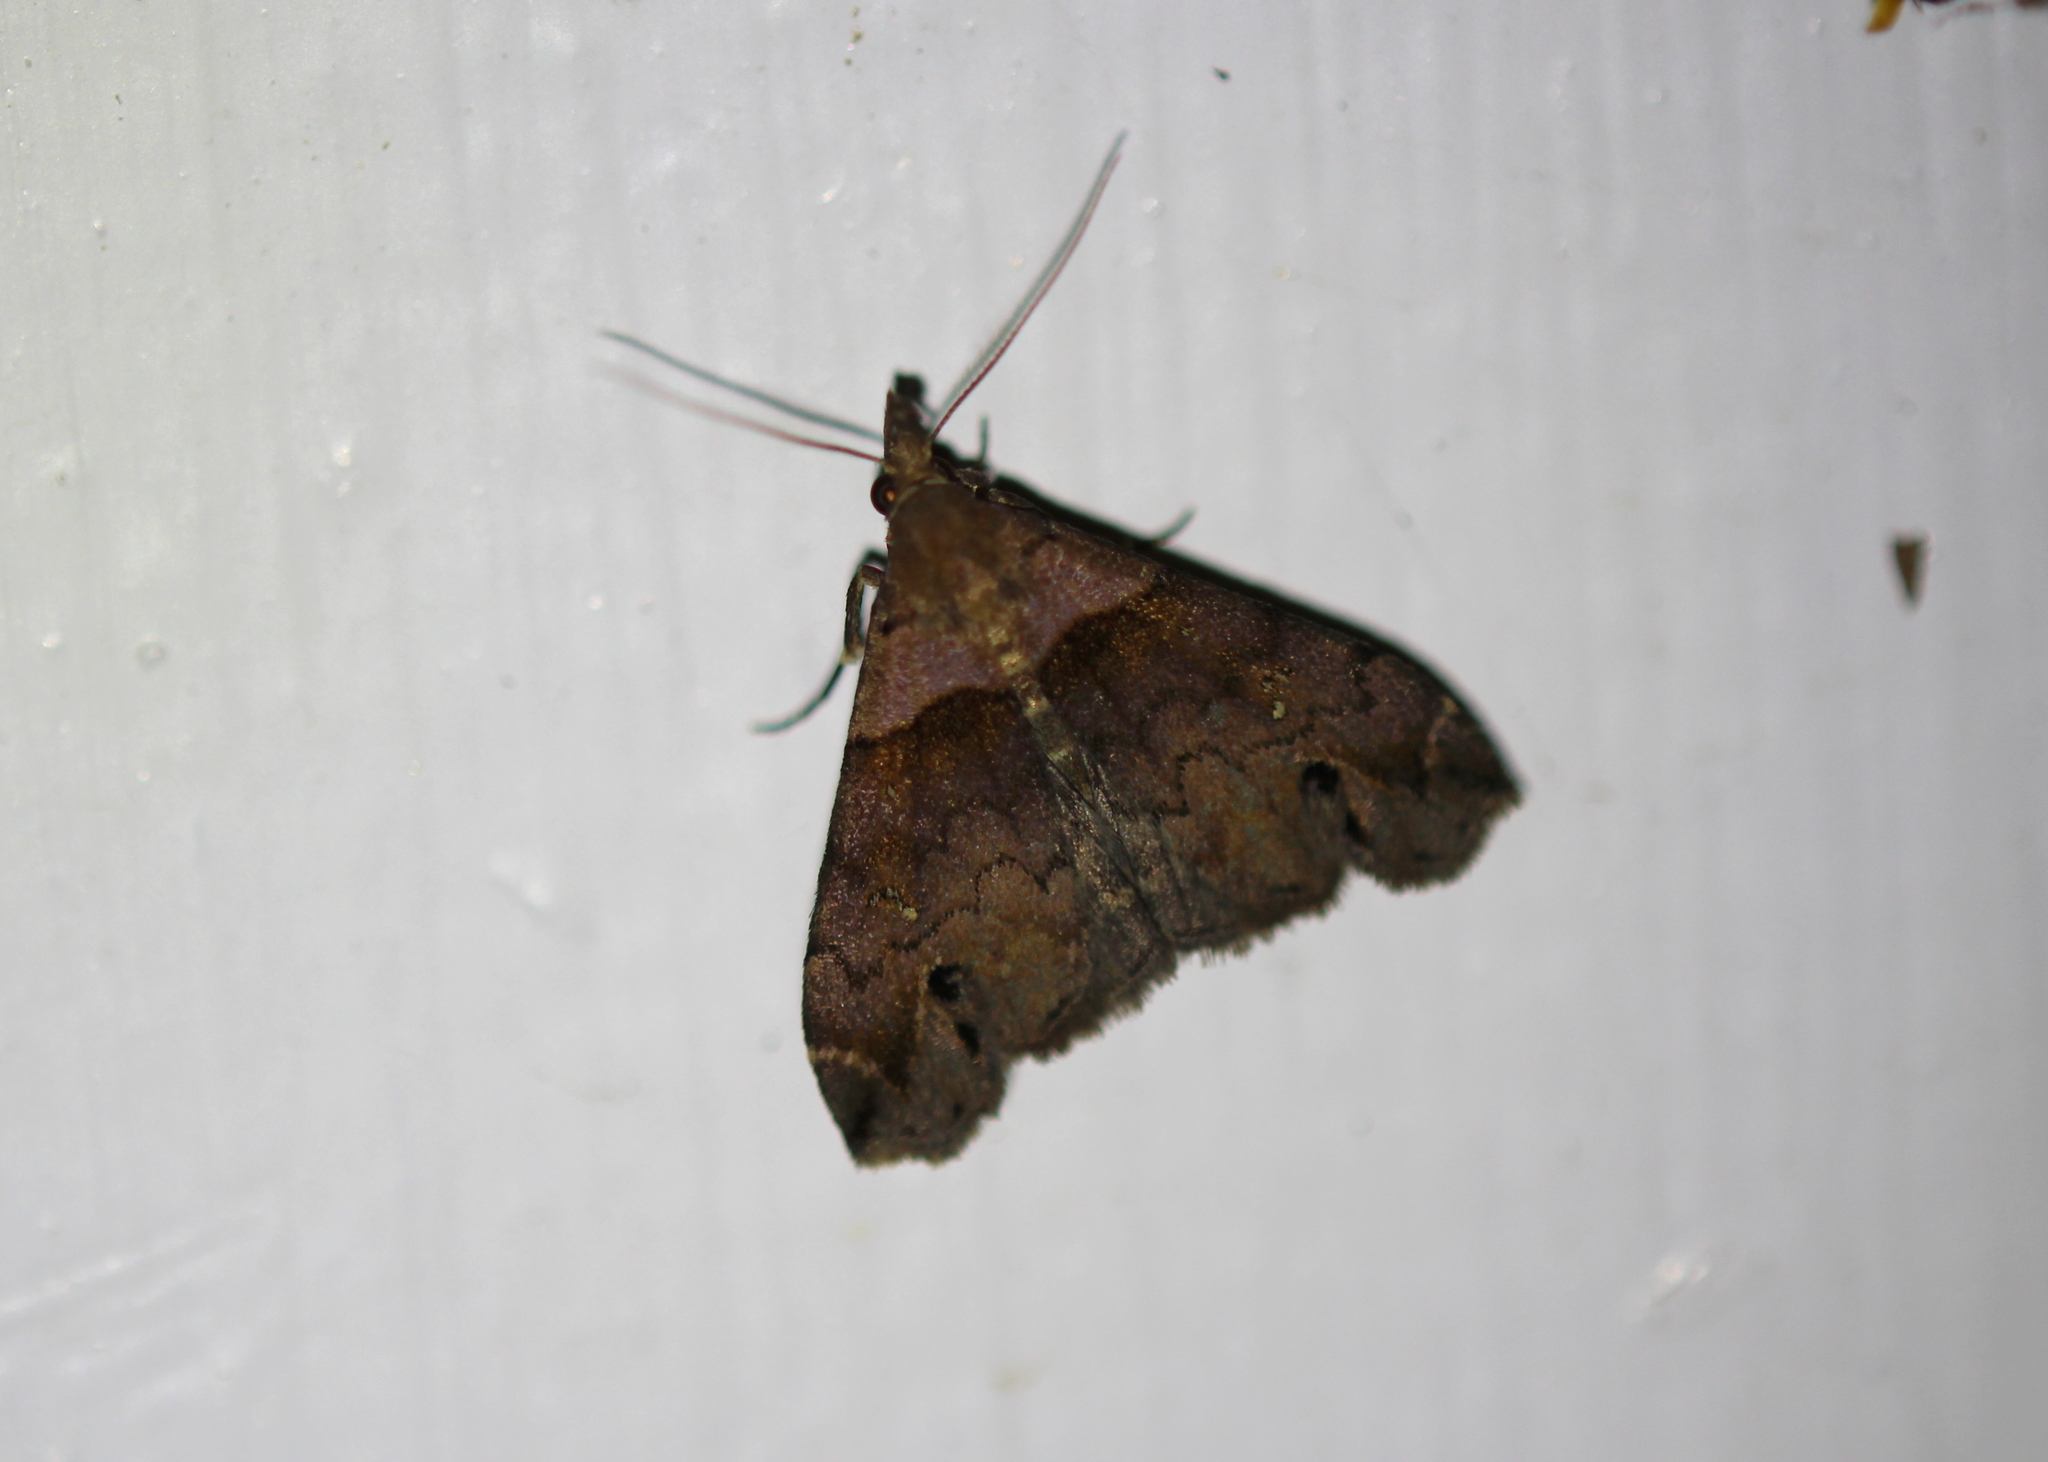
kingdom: Animalia
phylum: Arthropoda
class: Insecta
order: Lepidoptera
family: Erebidae
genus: Lascoria
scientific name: Lascoria ambigualis
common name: Ambiguous moth
